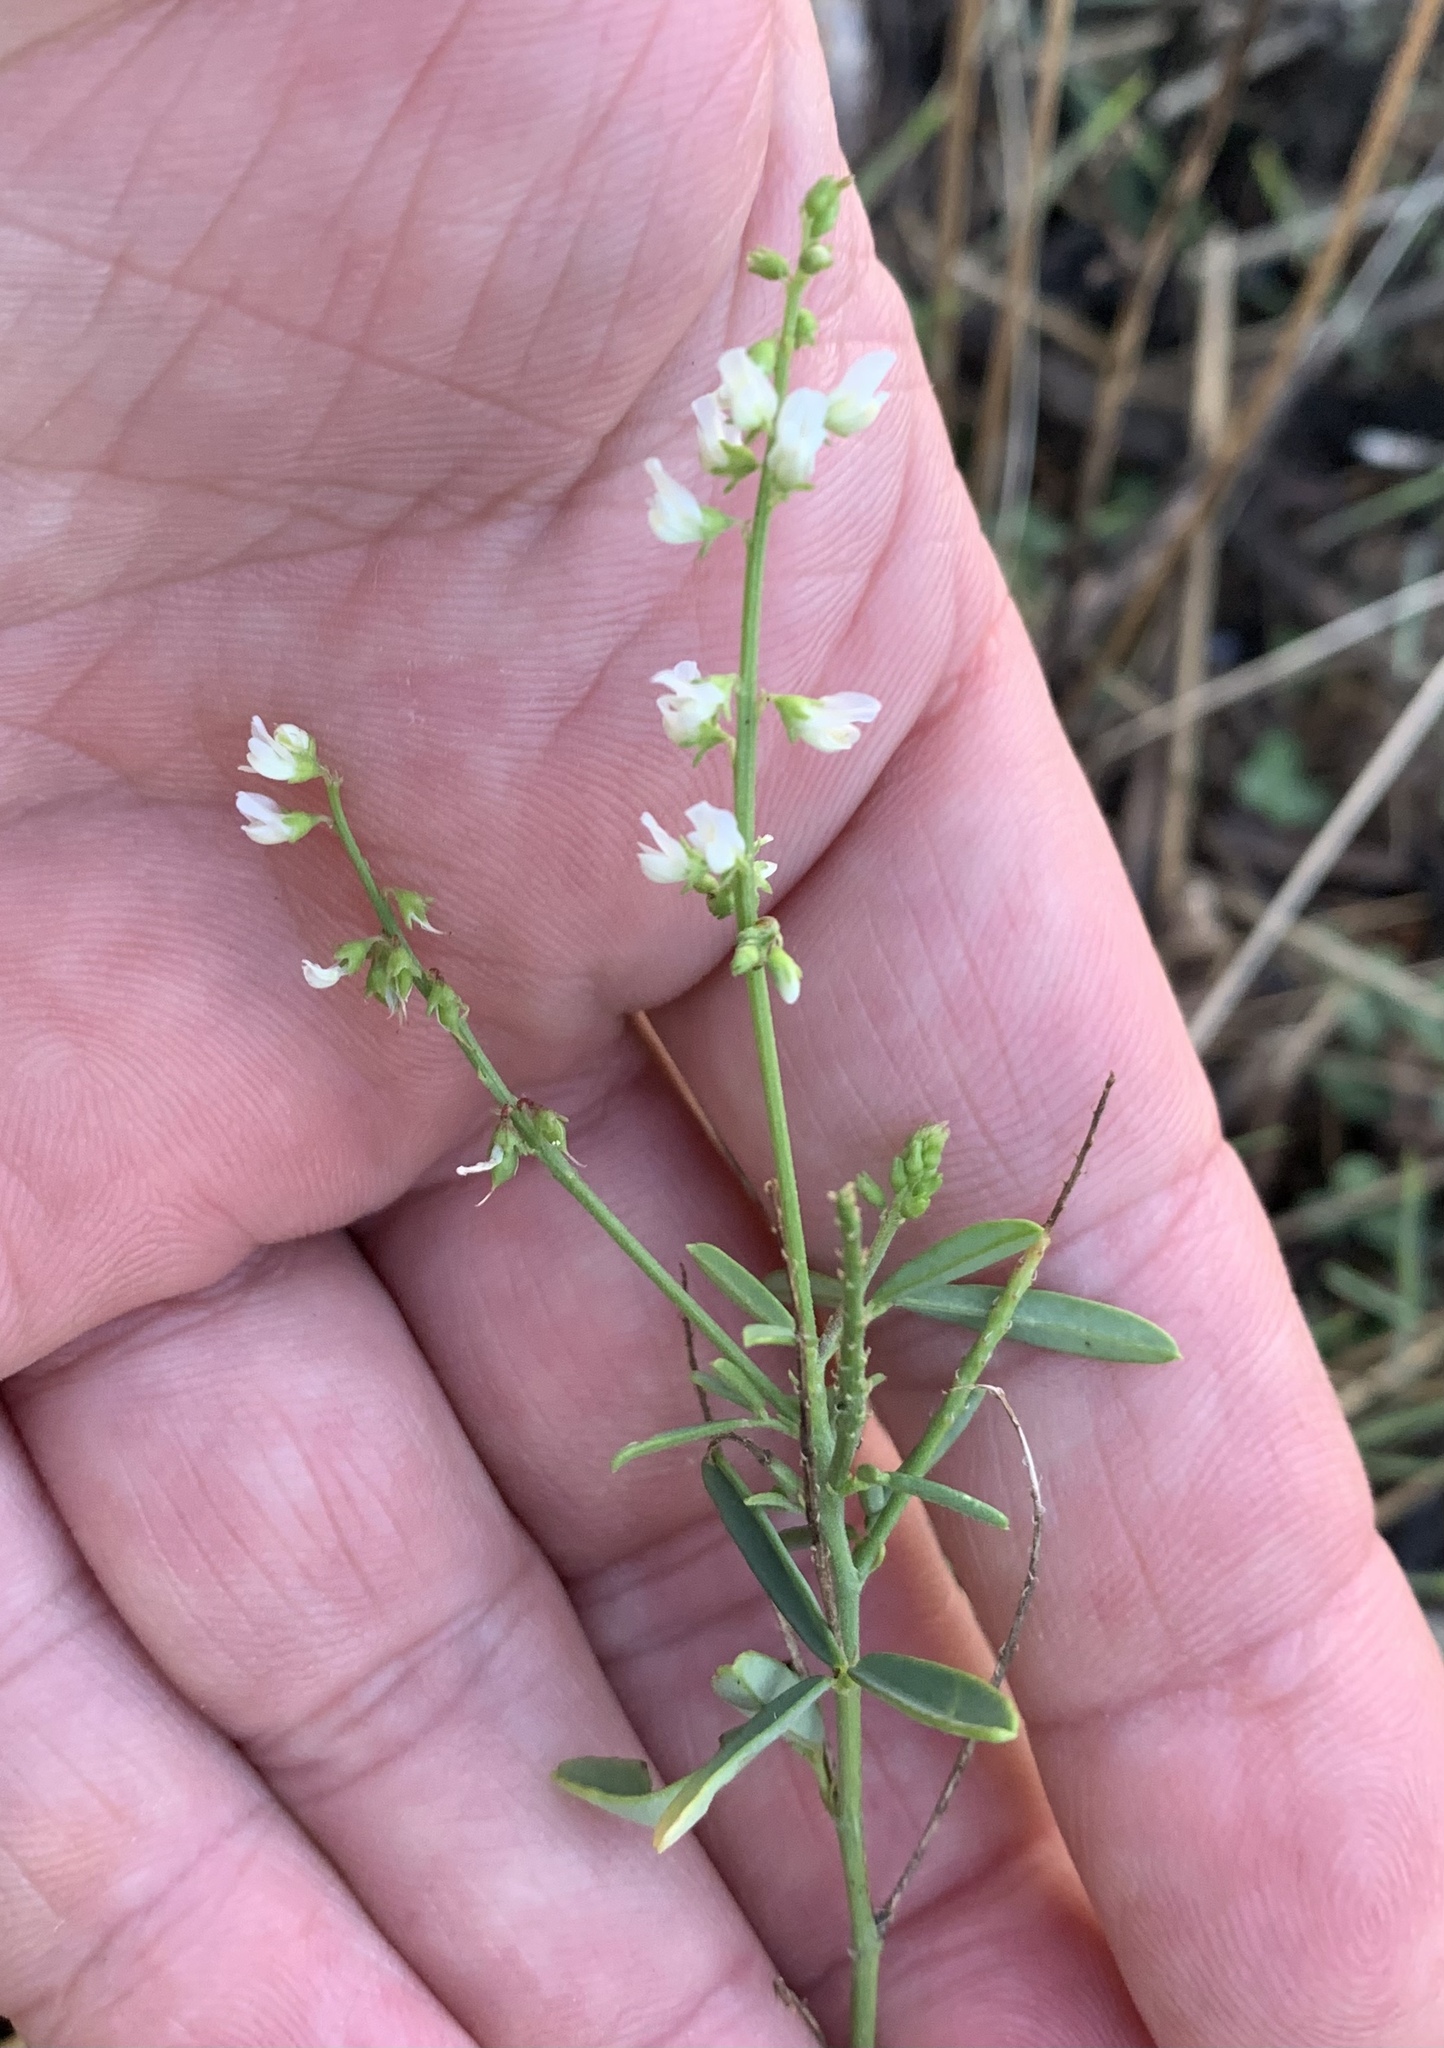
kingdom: Plantae
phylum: Tracheophyta
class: Magnoliopsida
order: Fabales
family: Fabaceae
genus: Melilotus
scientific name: Melilotus albus
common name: White melilot
